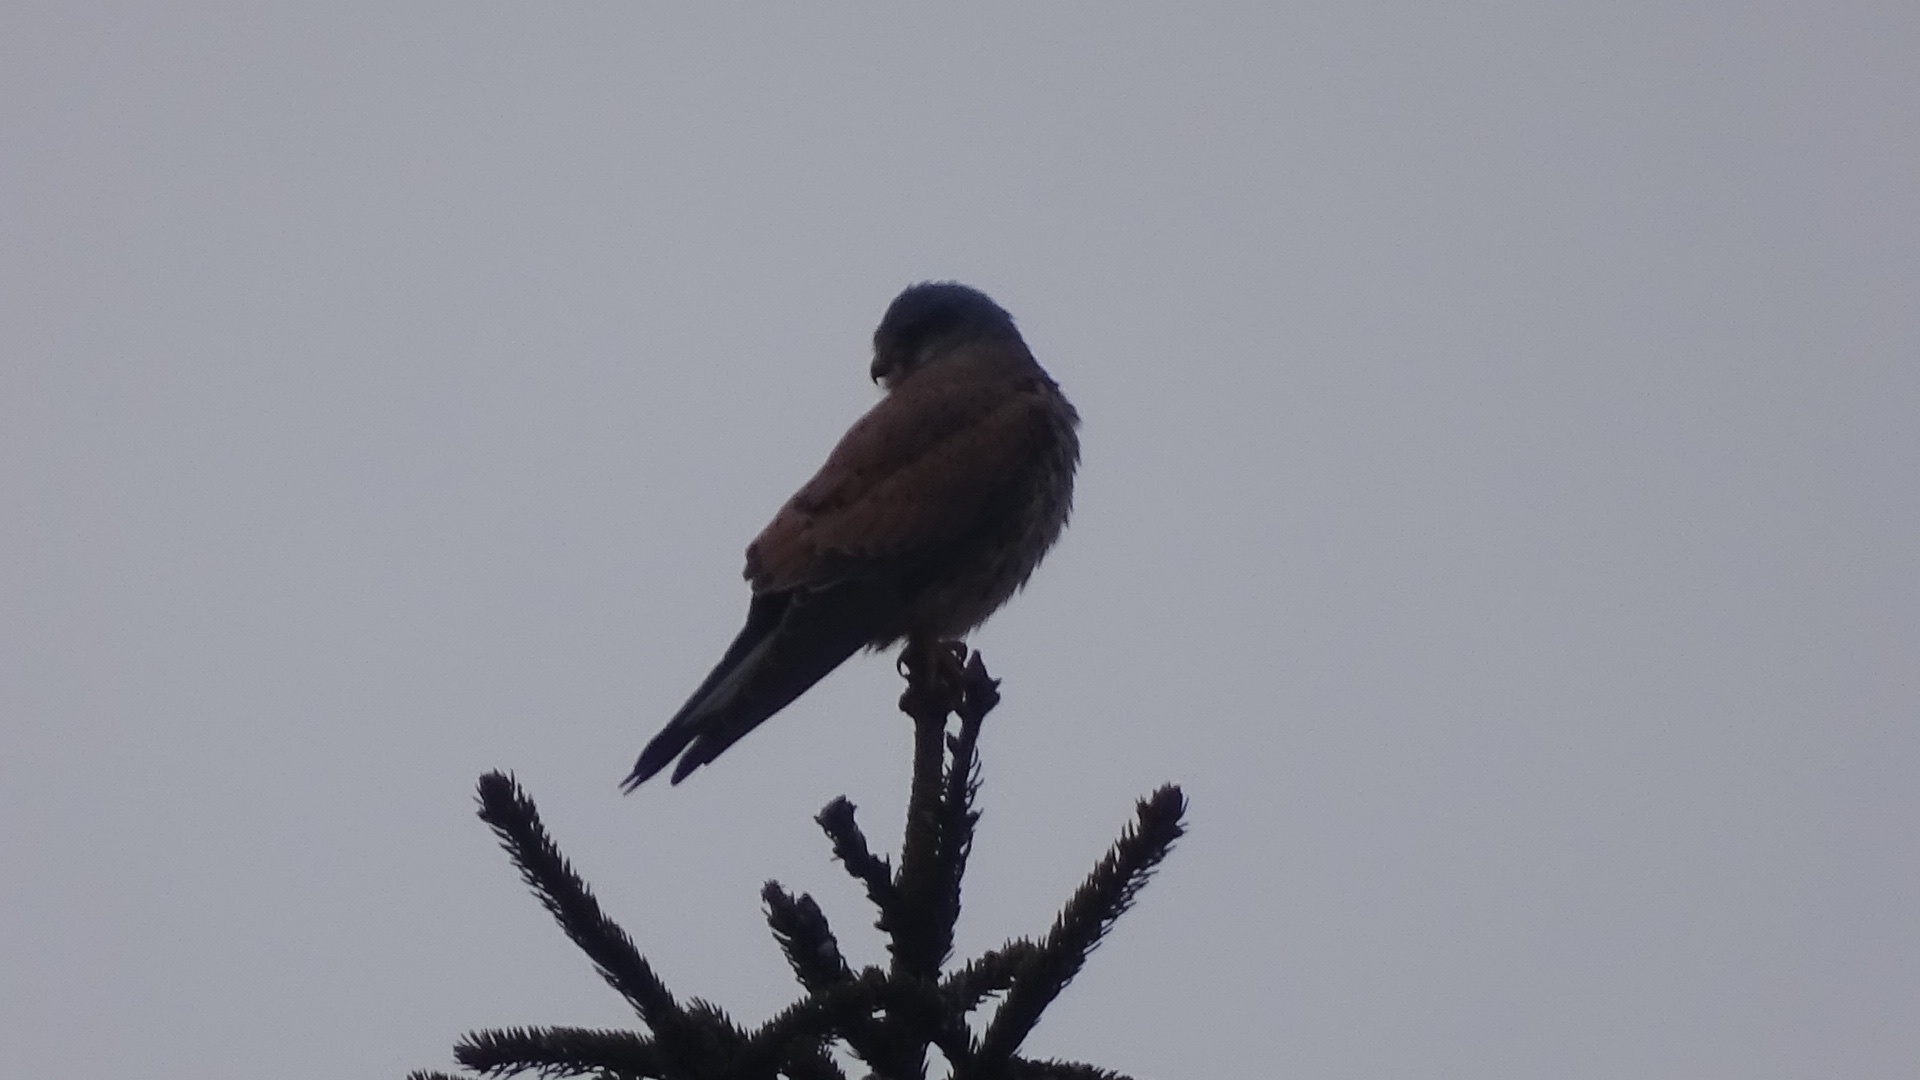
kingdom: Animalia
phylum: Chordata
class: Aves
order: Falconiformes
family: Falconidae
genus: Falco
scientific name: Falco tinnunculus
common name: Common kestrel
